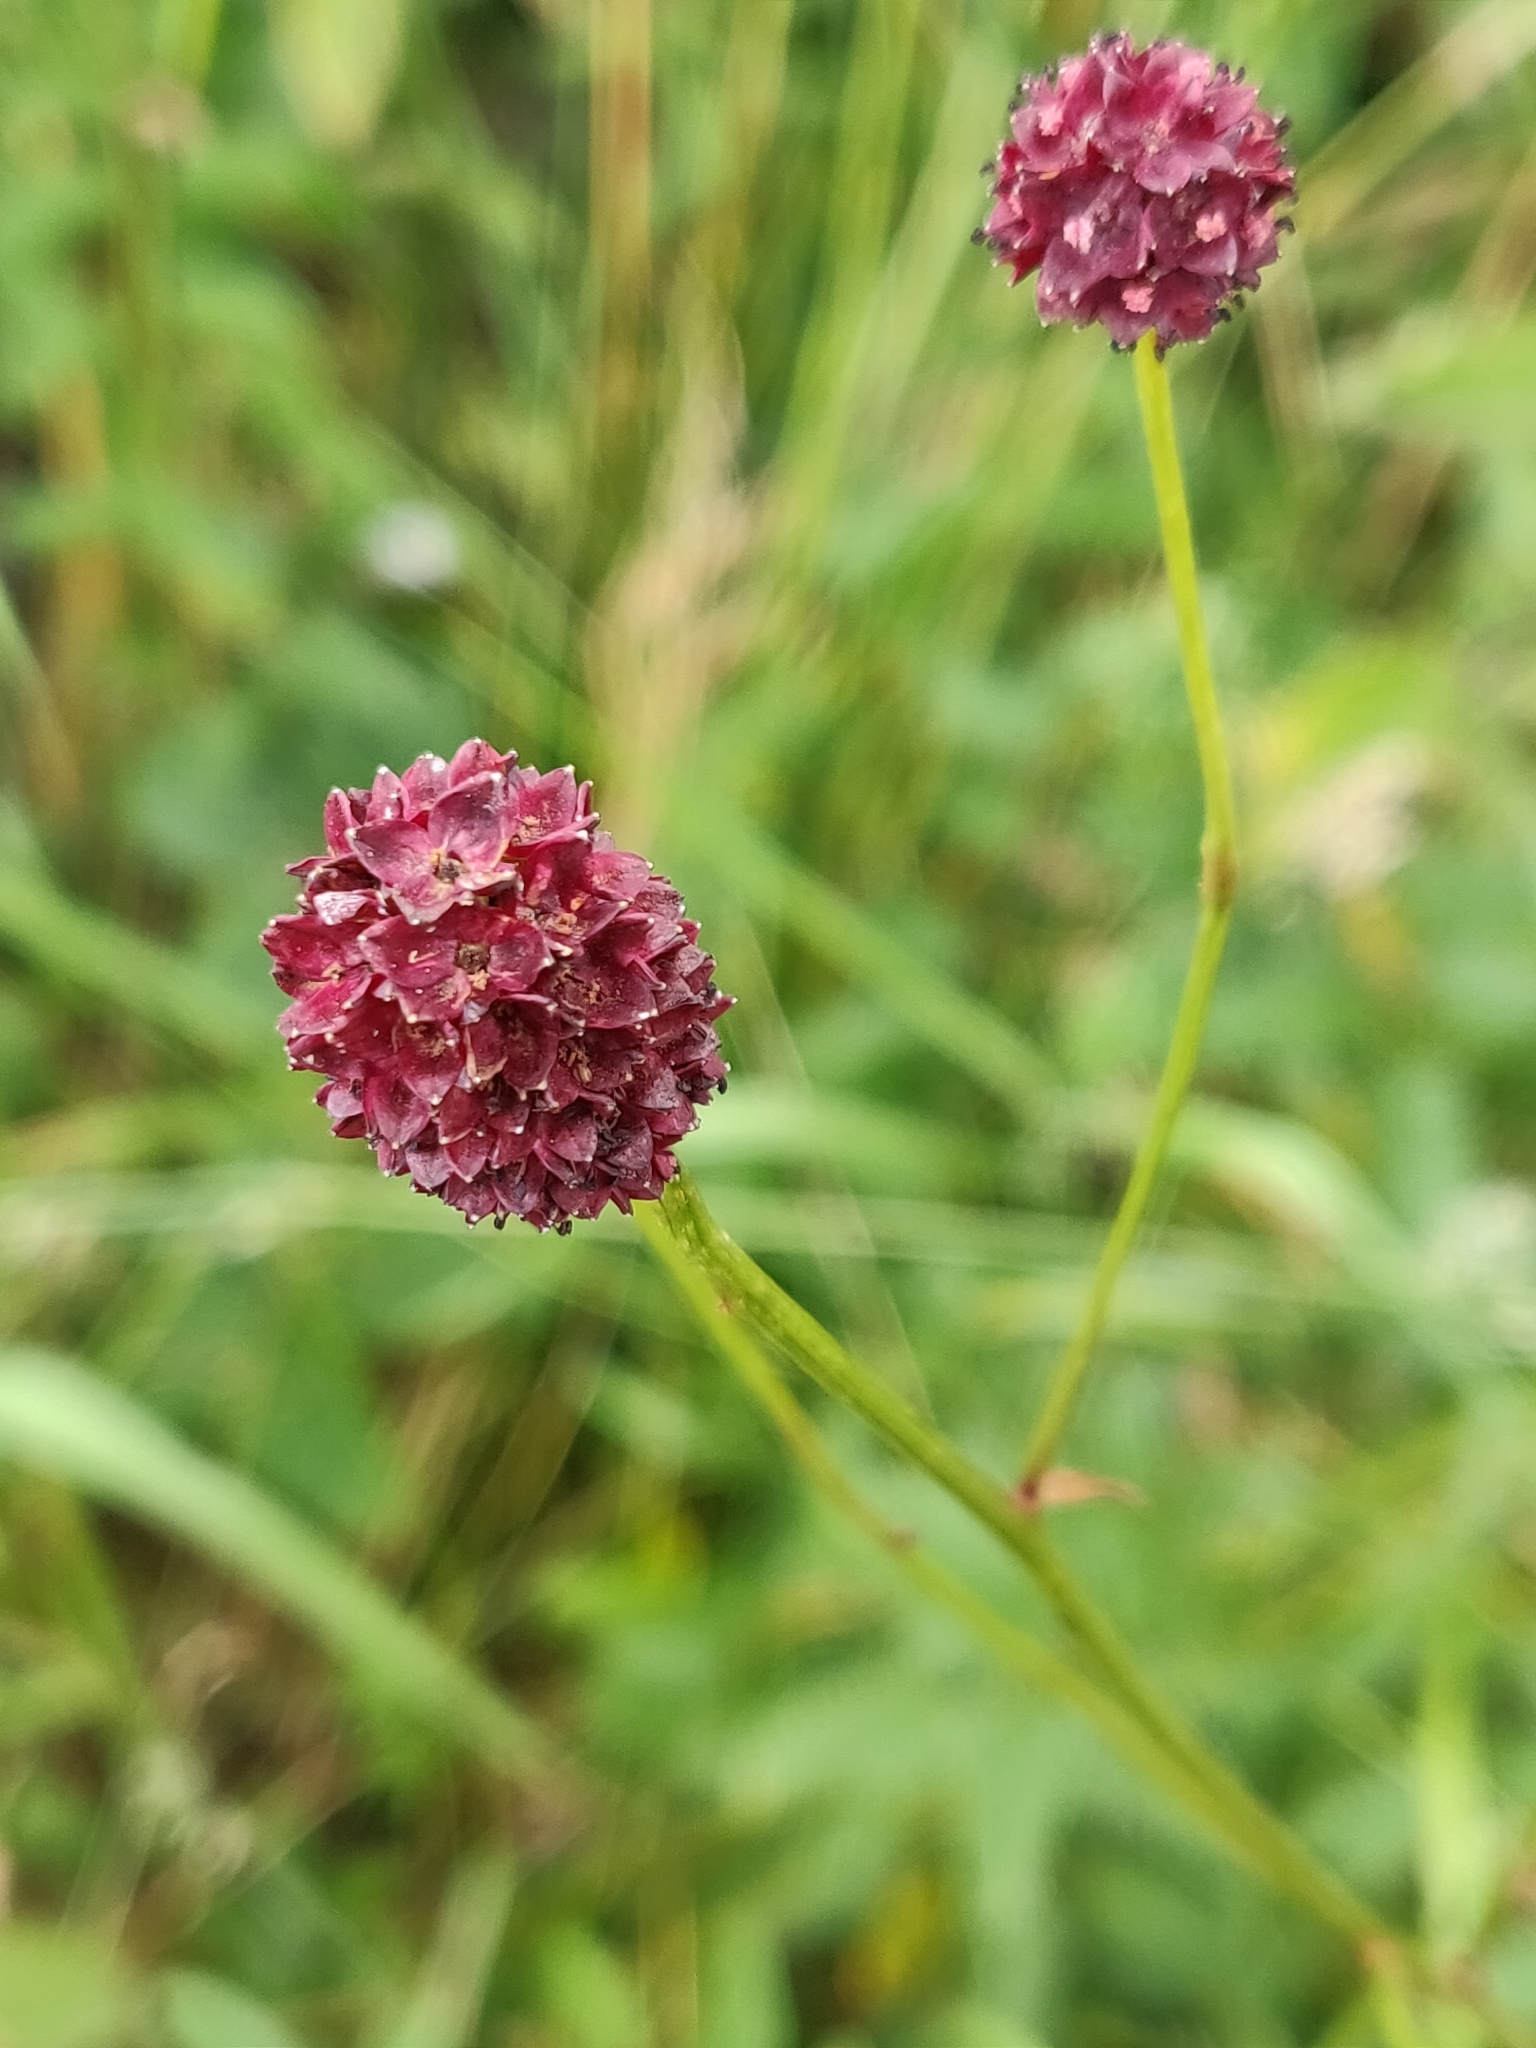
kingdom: Plantae
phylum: Tracheophyta
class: Magnoliopsida
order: Rosales
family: Rosaceae
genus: Sanguisorba
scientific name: Sanguisorba officinalis
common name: Great burnet
